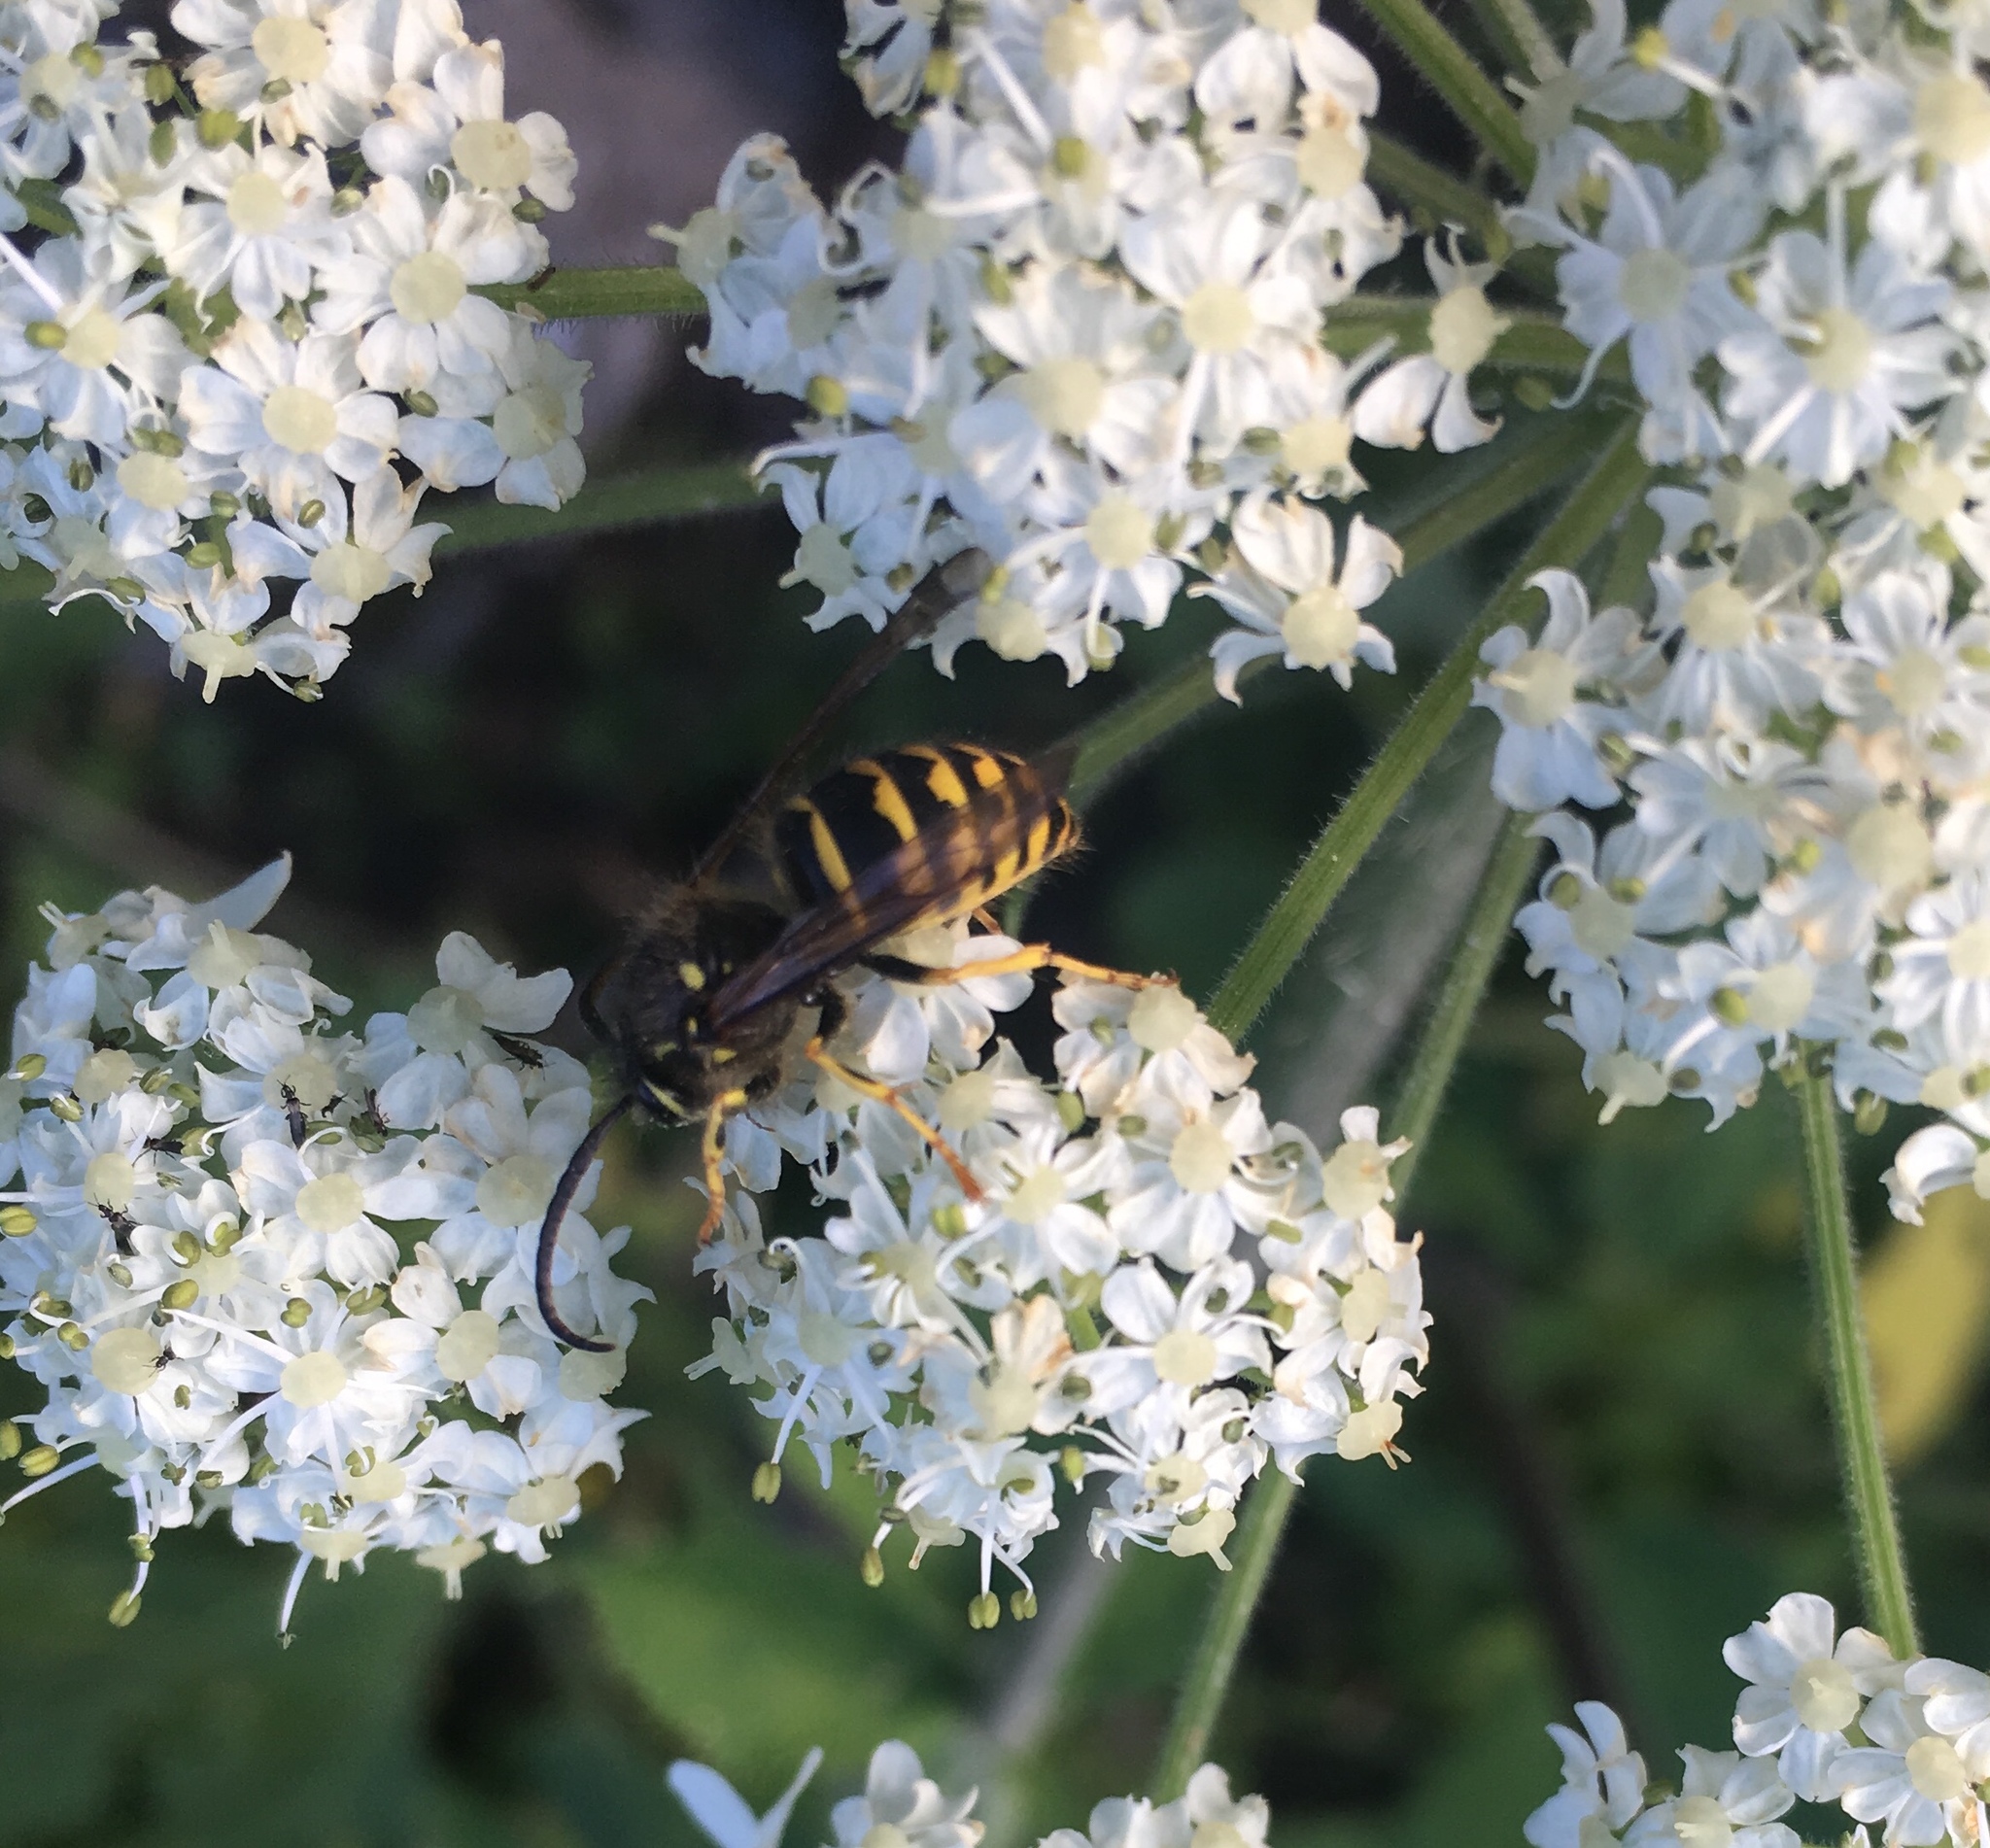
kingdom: Animalia
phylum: Arthropoda
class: Insecta
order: Hymenoptera
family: Vespidae
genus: Dolichovespula
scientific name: Dolichovespula arenaria
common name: Aerial yellowjacket
